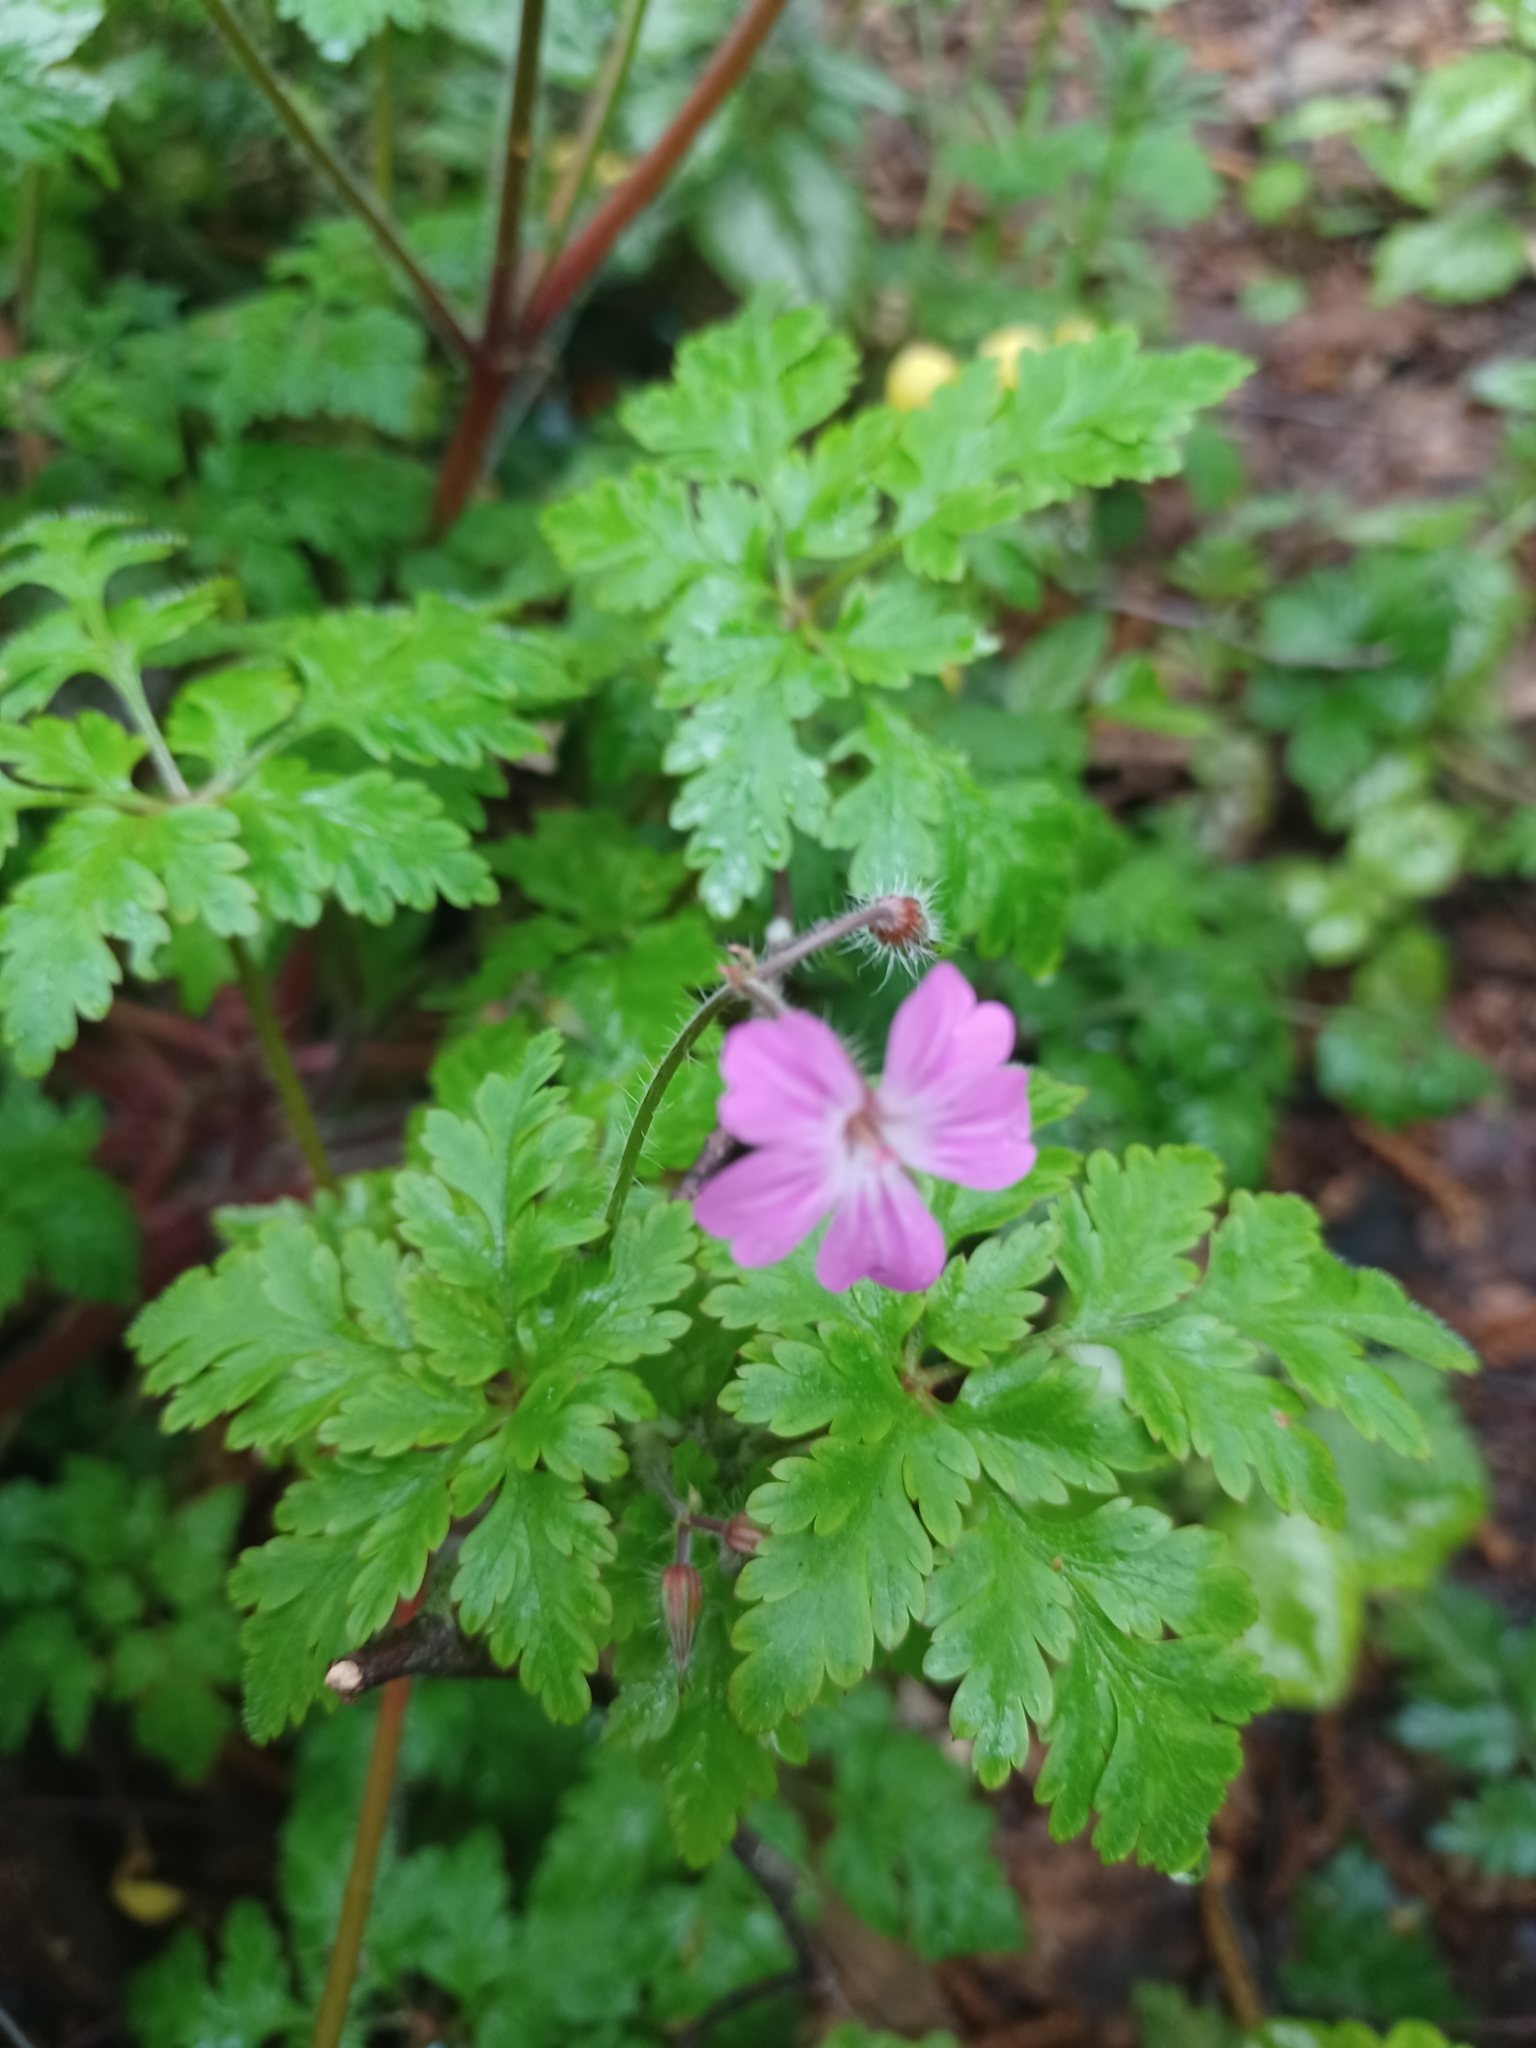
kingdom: Plantae
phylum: Tracheophyta
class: Magnoliopsida
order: Geraniales
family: Geraniaceae
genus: Geranium
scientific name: Geranium robertianum
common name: Herb-robert
